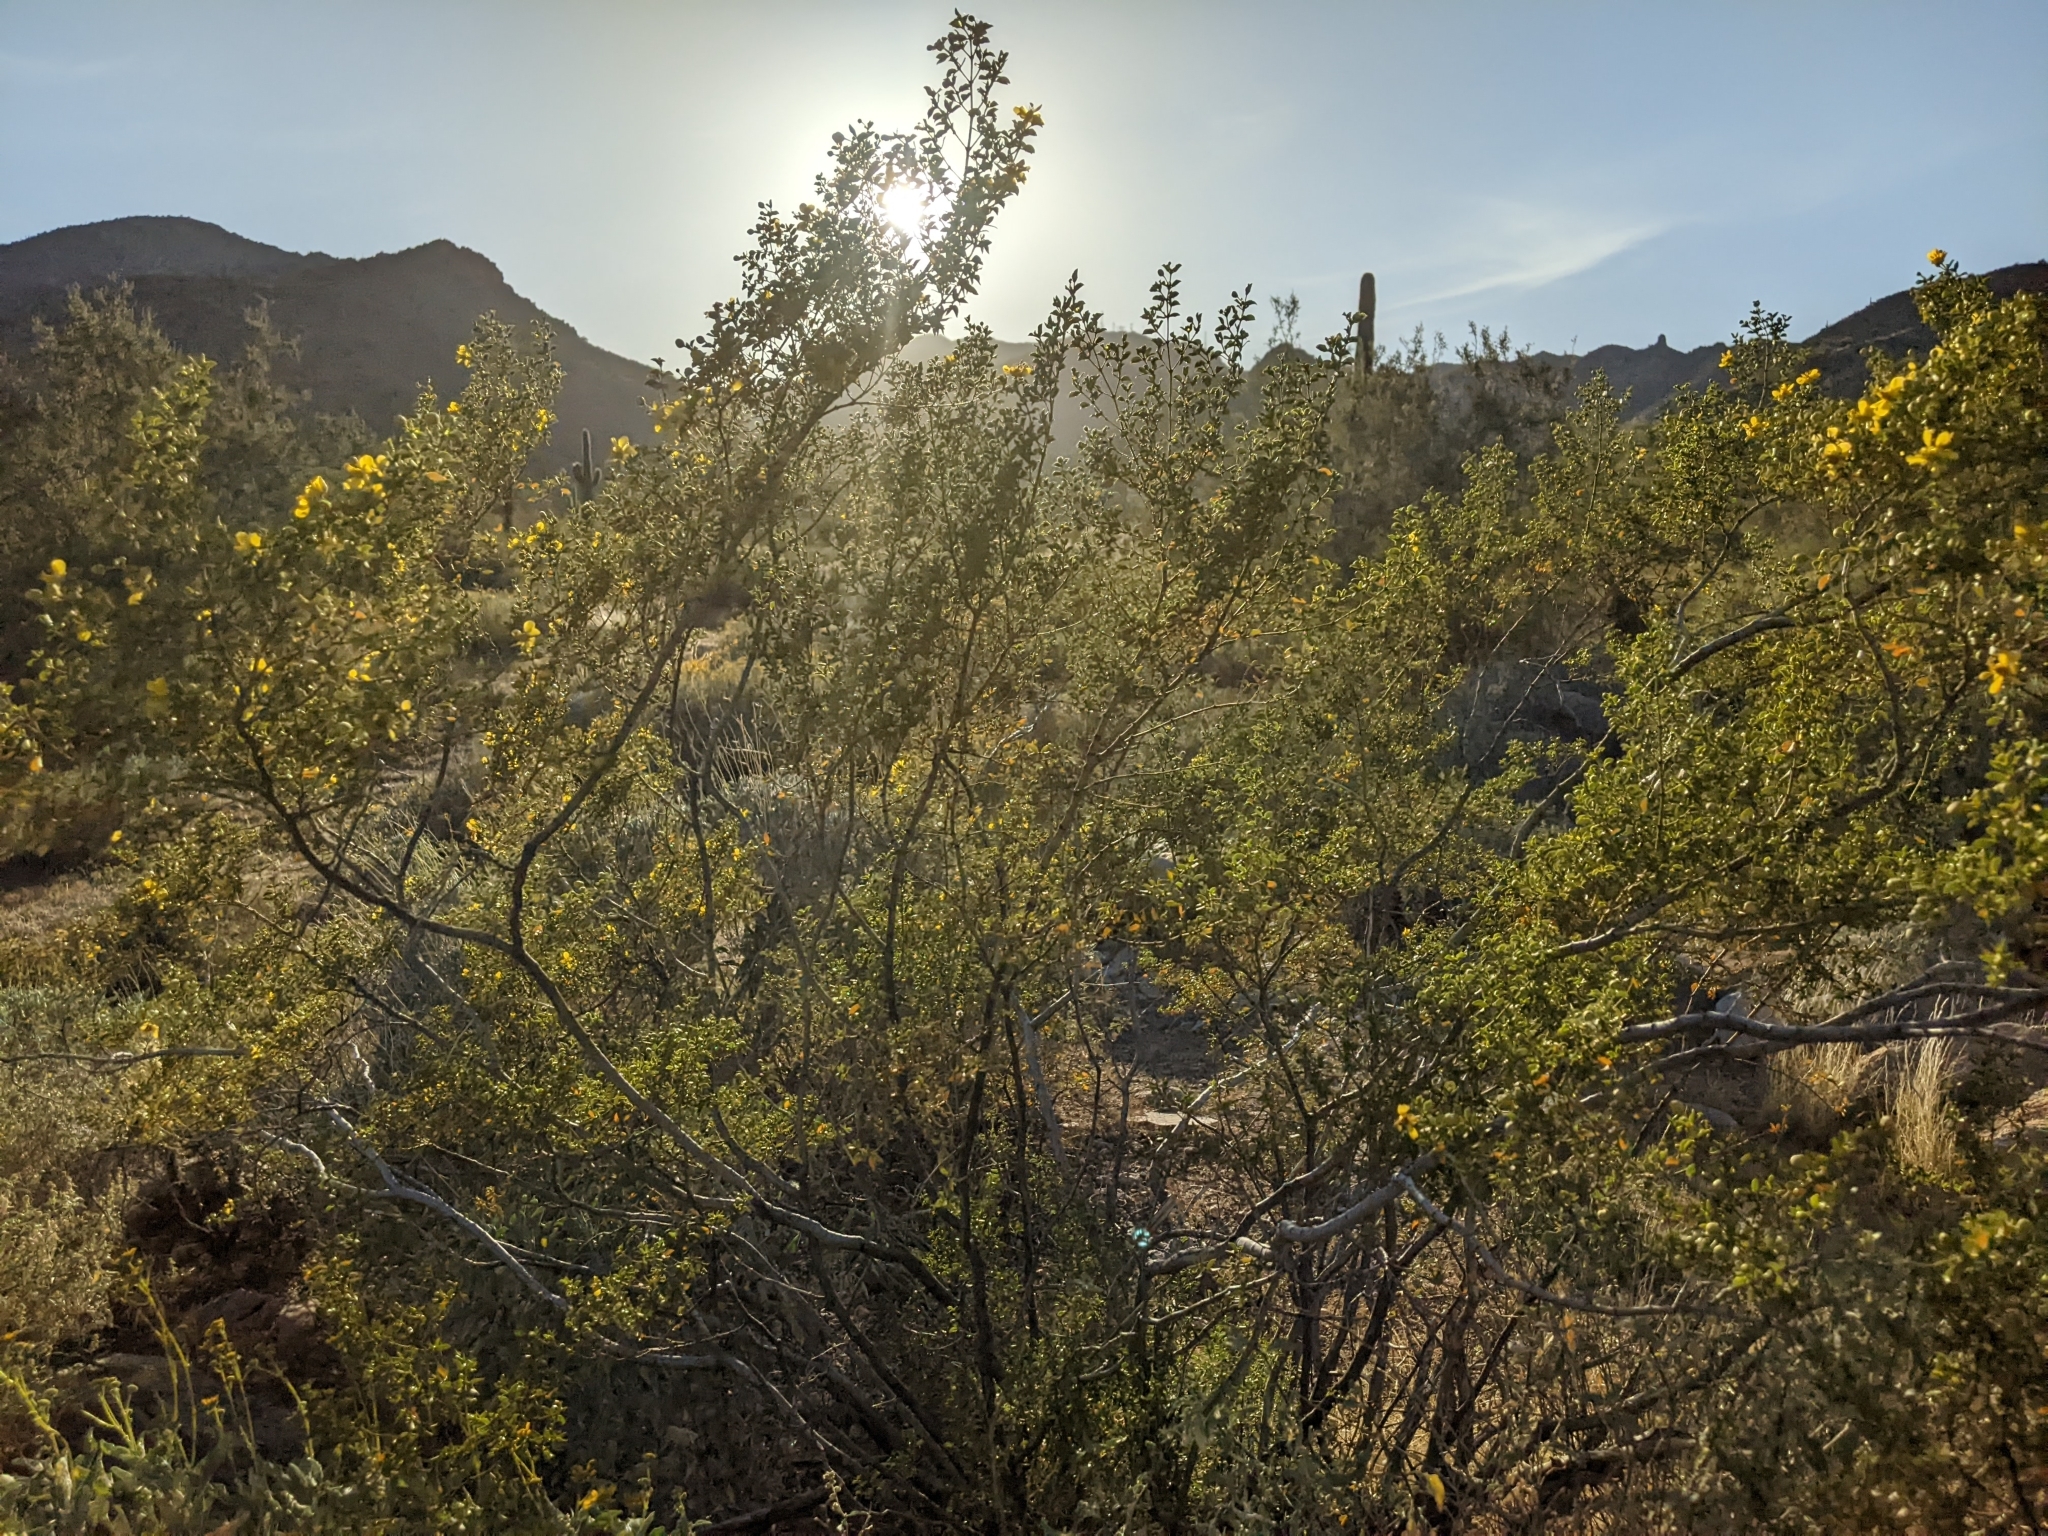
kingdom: Plantae
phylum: Tracheophyta
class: Magnoliopsida
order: Zygophyllales
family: Zygophyllaceae
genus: Larrea
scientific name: Larrea tridentata
